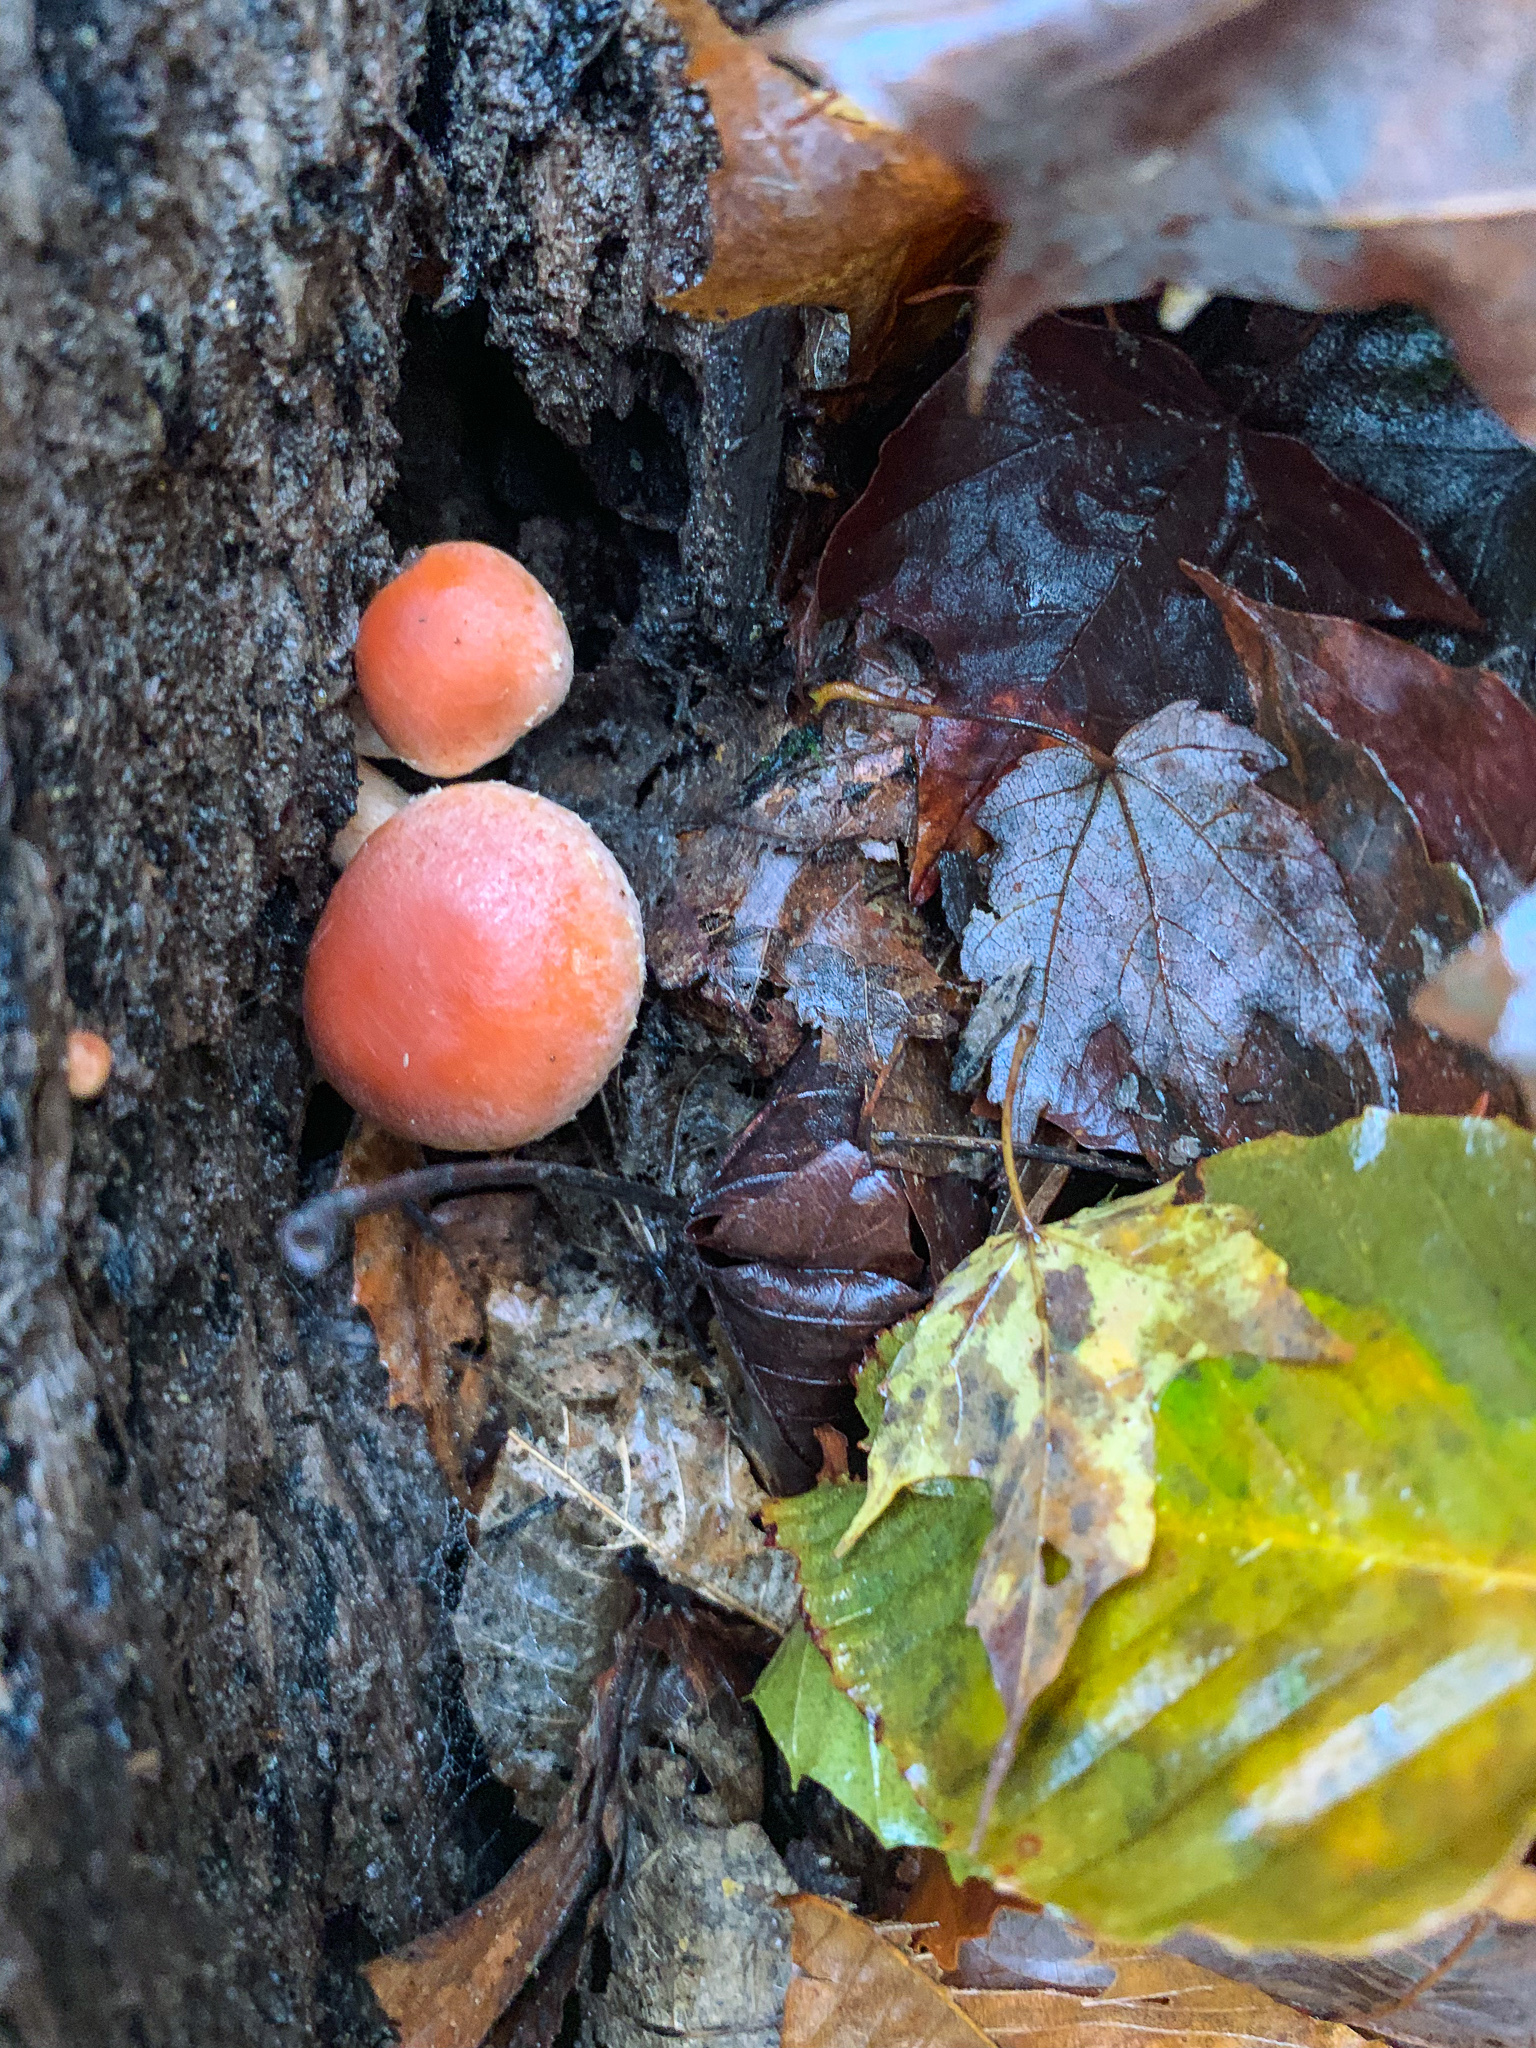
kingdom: Fungi
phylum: Basidiomycota
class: Agaricomycetes
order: Agaricales
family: Strophariaceae
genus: Hypholoma
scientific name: Hypholoma lateritium
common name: Brick caps
